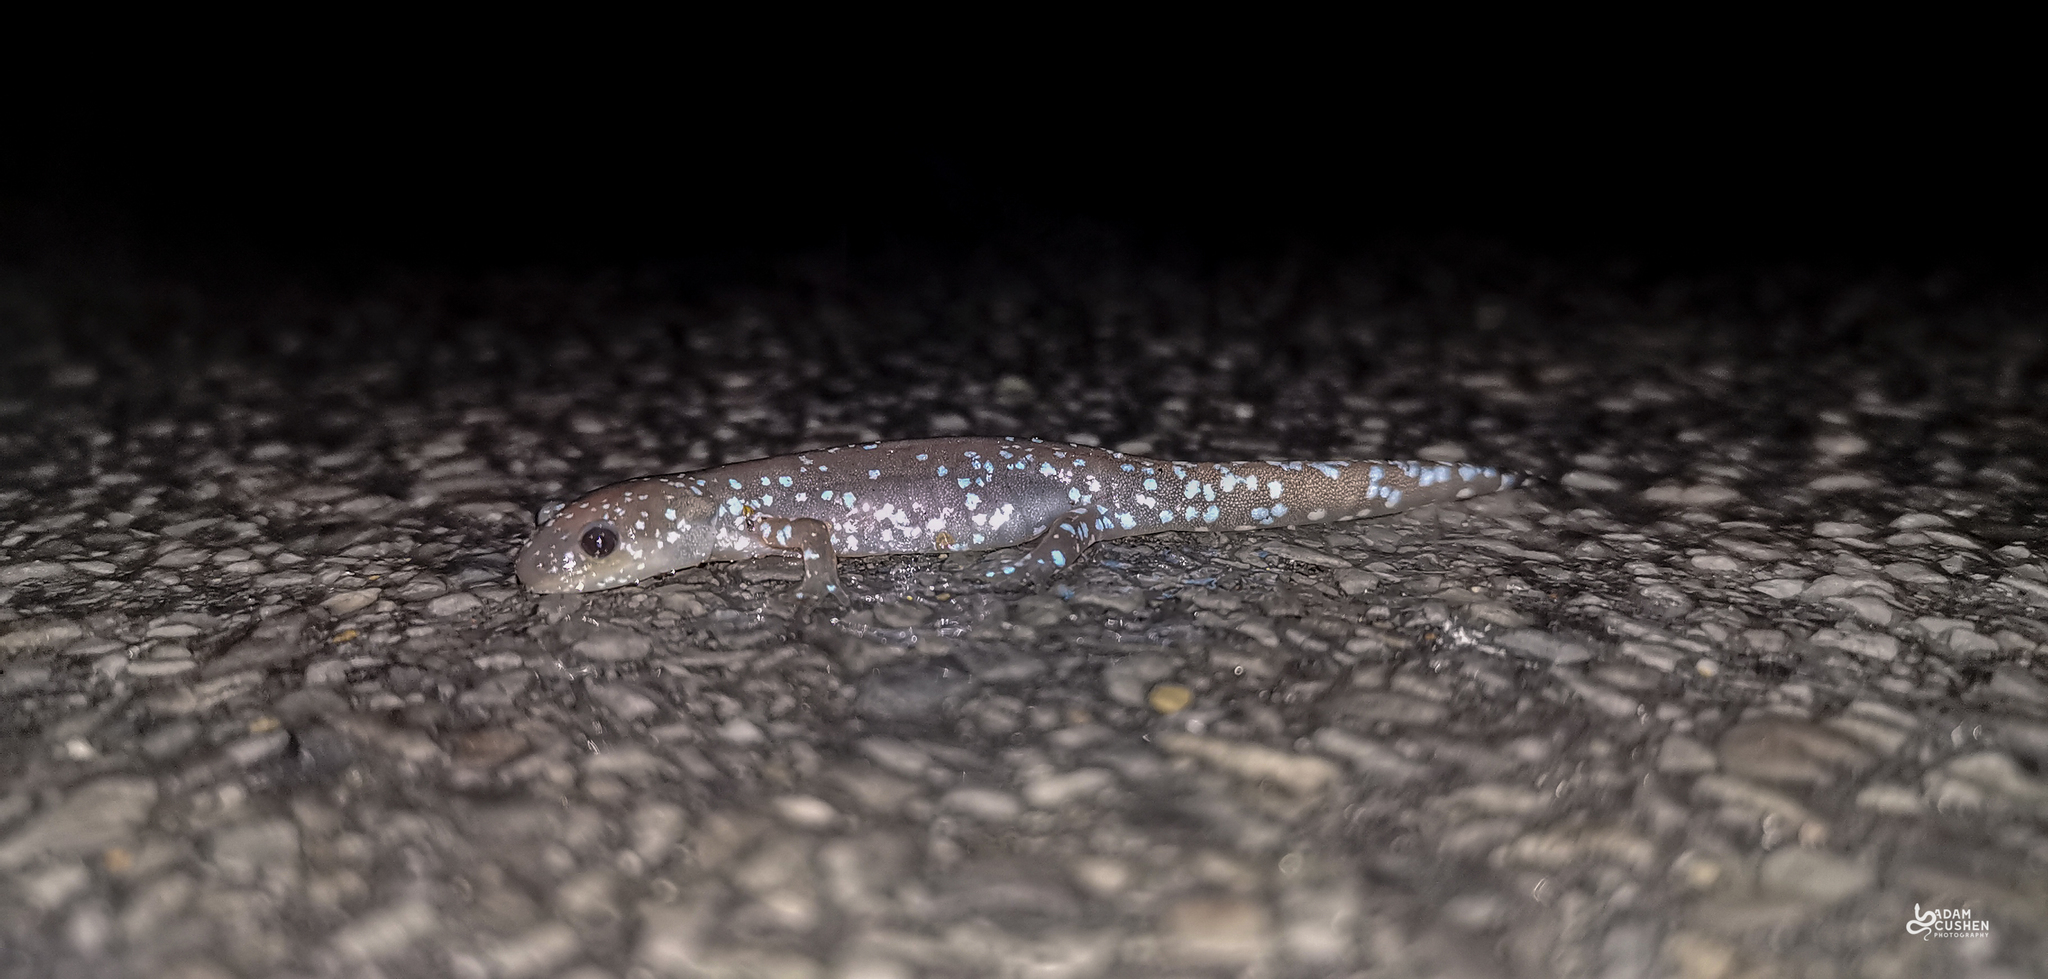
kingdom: Animalia
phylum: Chordata
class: Amphibia
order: Caudata
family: Ambystomatidae
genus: Ambystoma
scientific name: Ambystoma laterale
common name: Blue-spotted salamander
